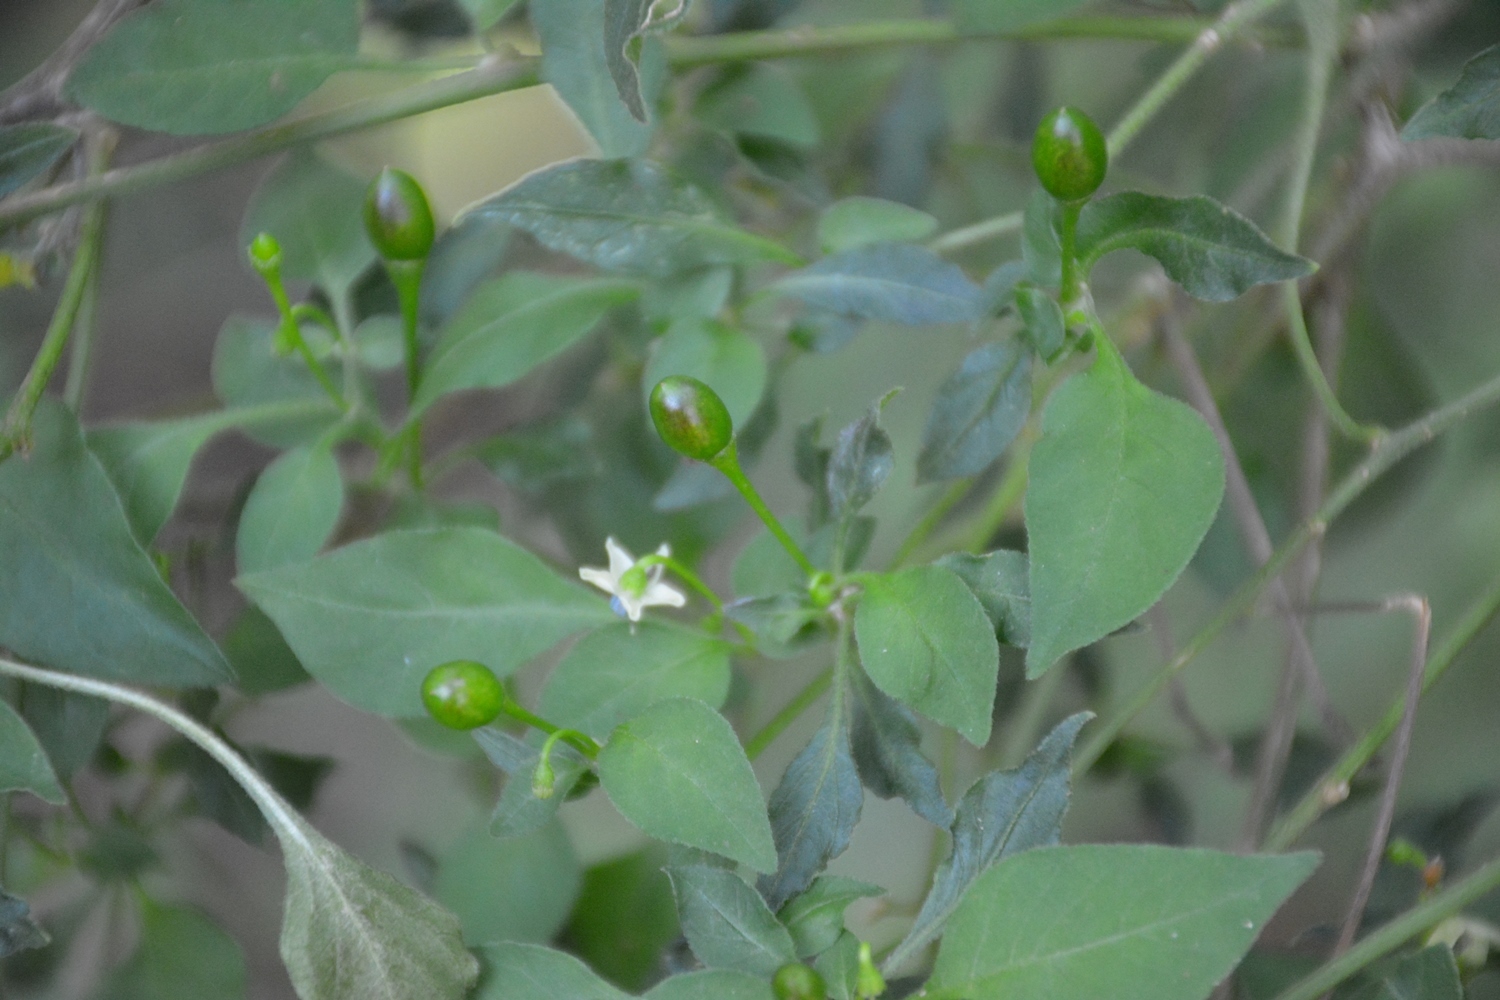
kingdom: Plantae
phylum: Tracheophyta
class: Magnoliopsida
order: Solanales
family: Solanaceae
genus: Capsicum
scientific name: Capsicum annuum
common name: Sweet pepper
